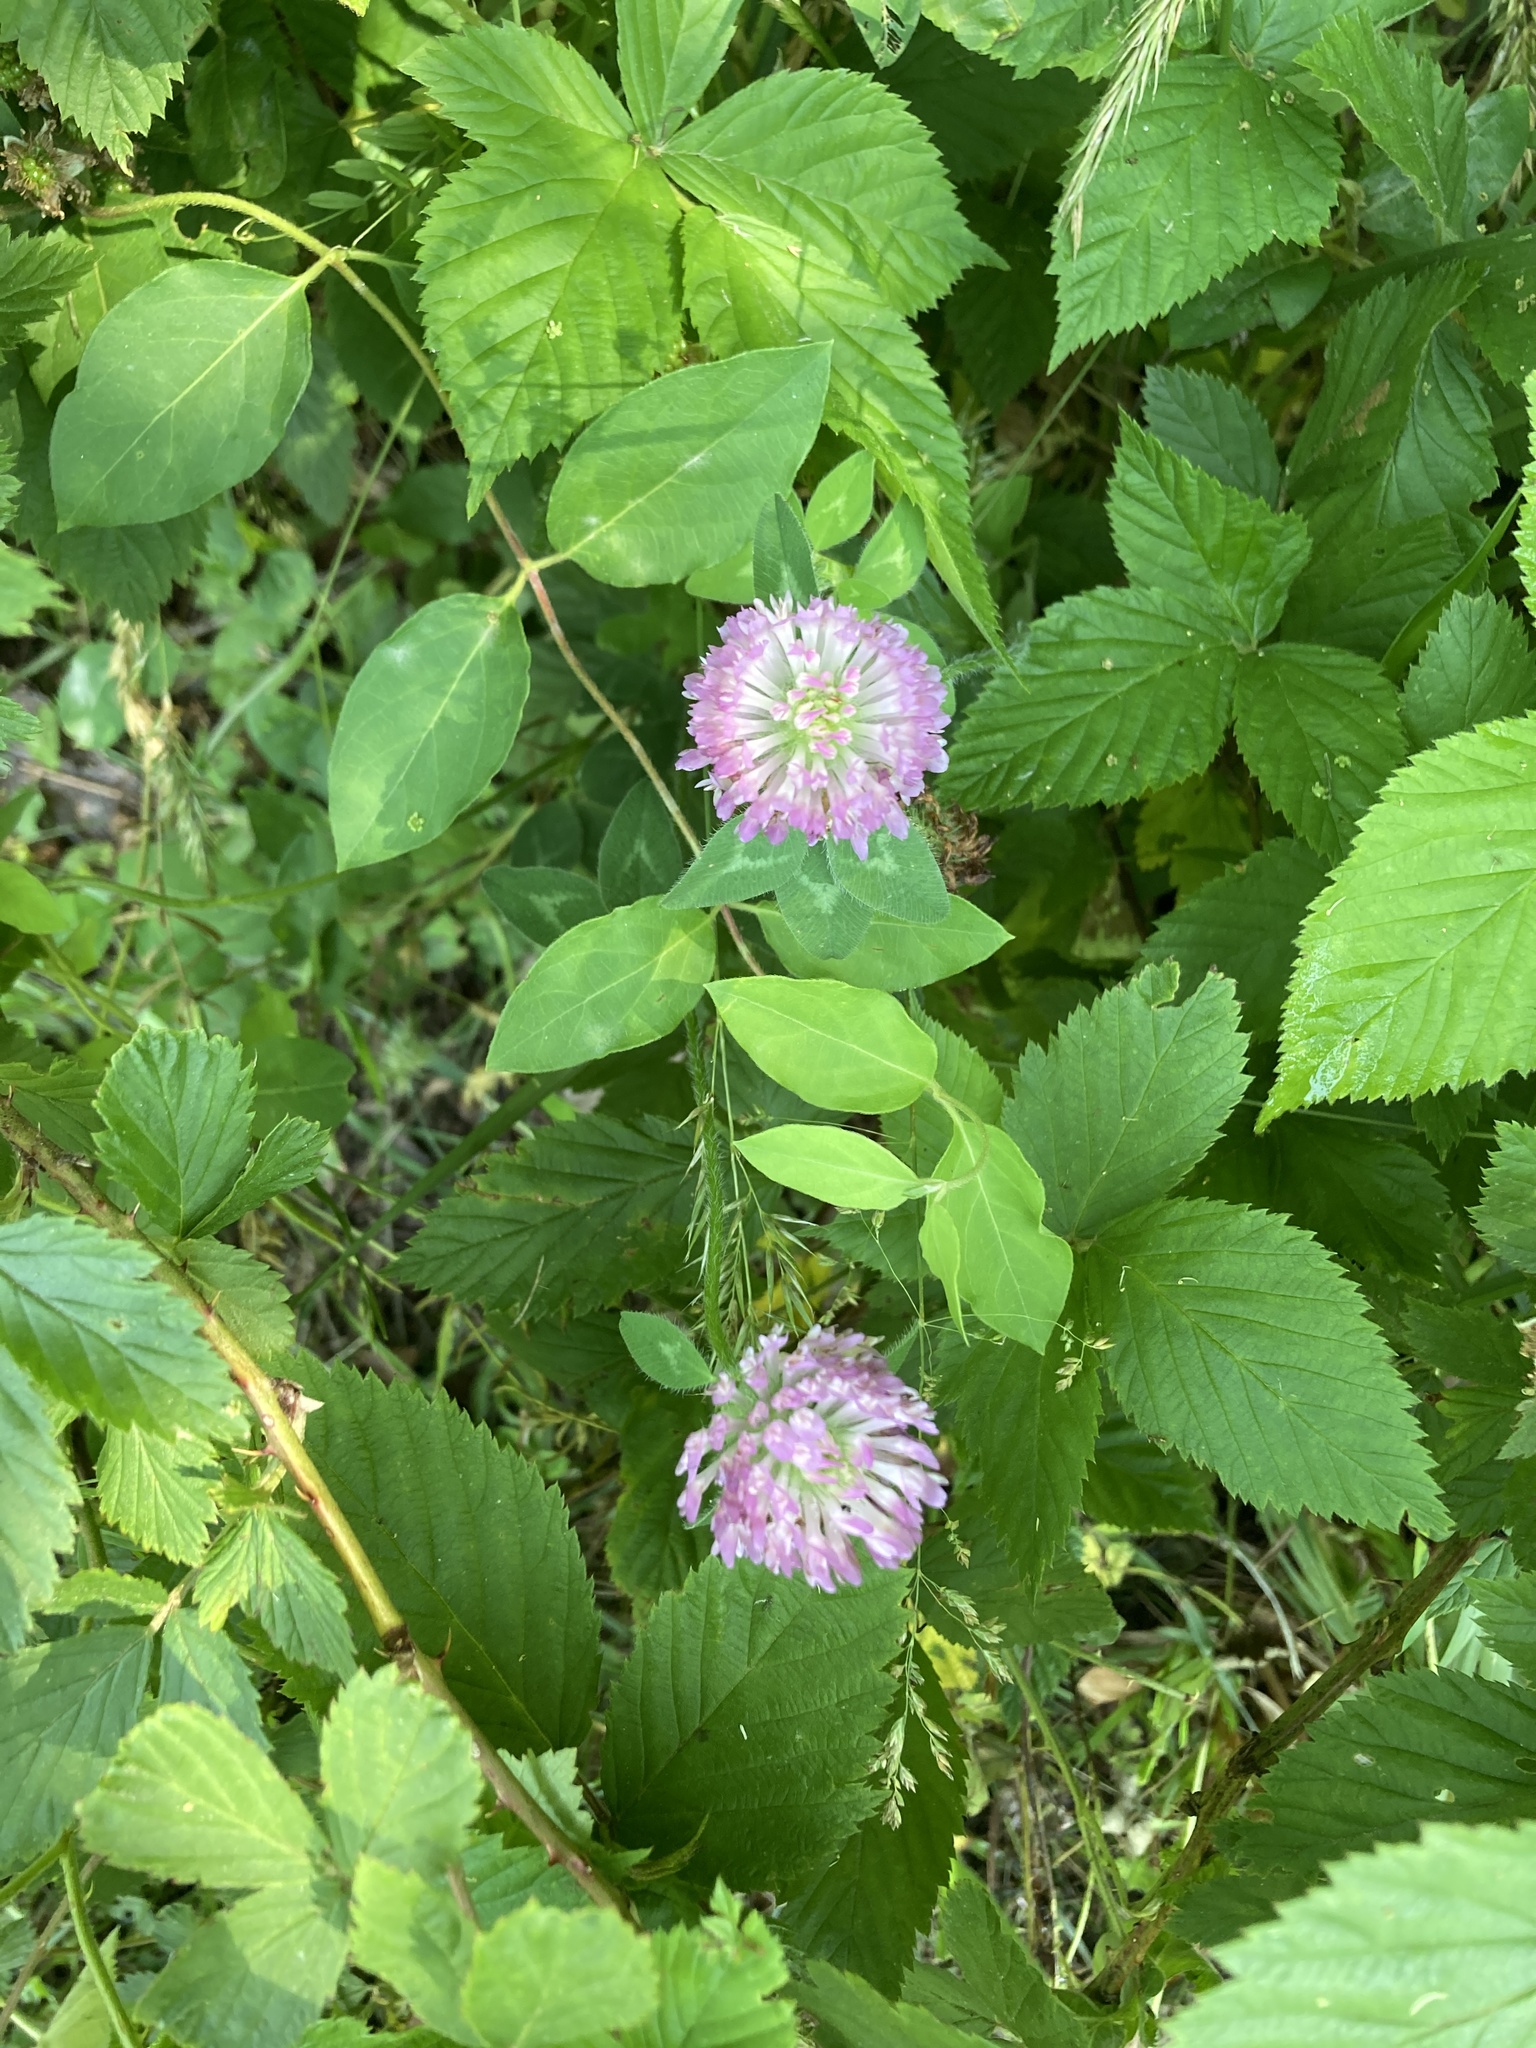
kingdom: Plantae
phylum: Tracheophyta
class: Magnoliopsida
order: Fabales
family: Fabaceae
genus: Trifolium
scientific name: Trifolium pratense
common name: Red clover
